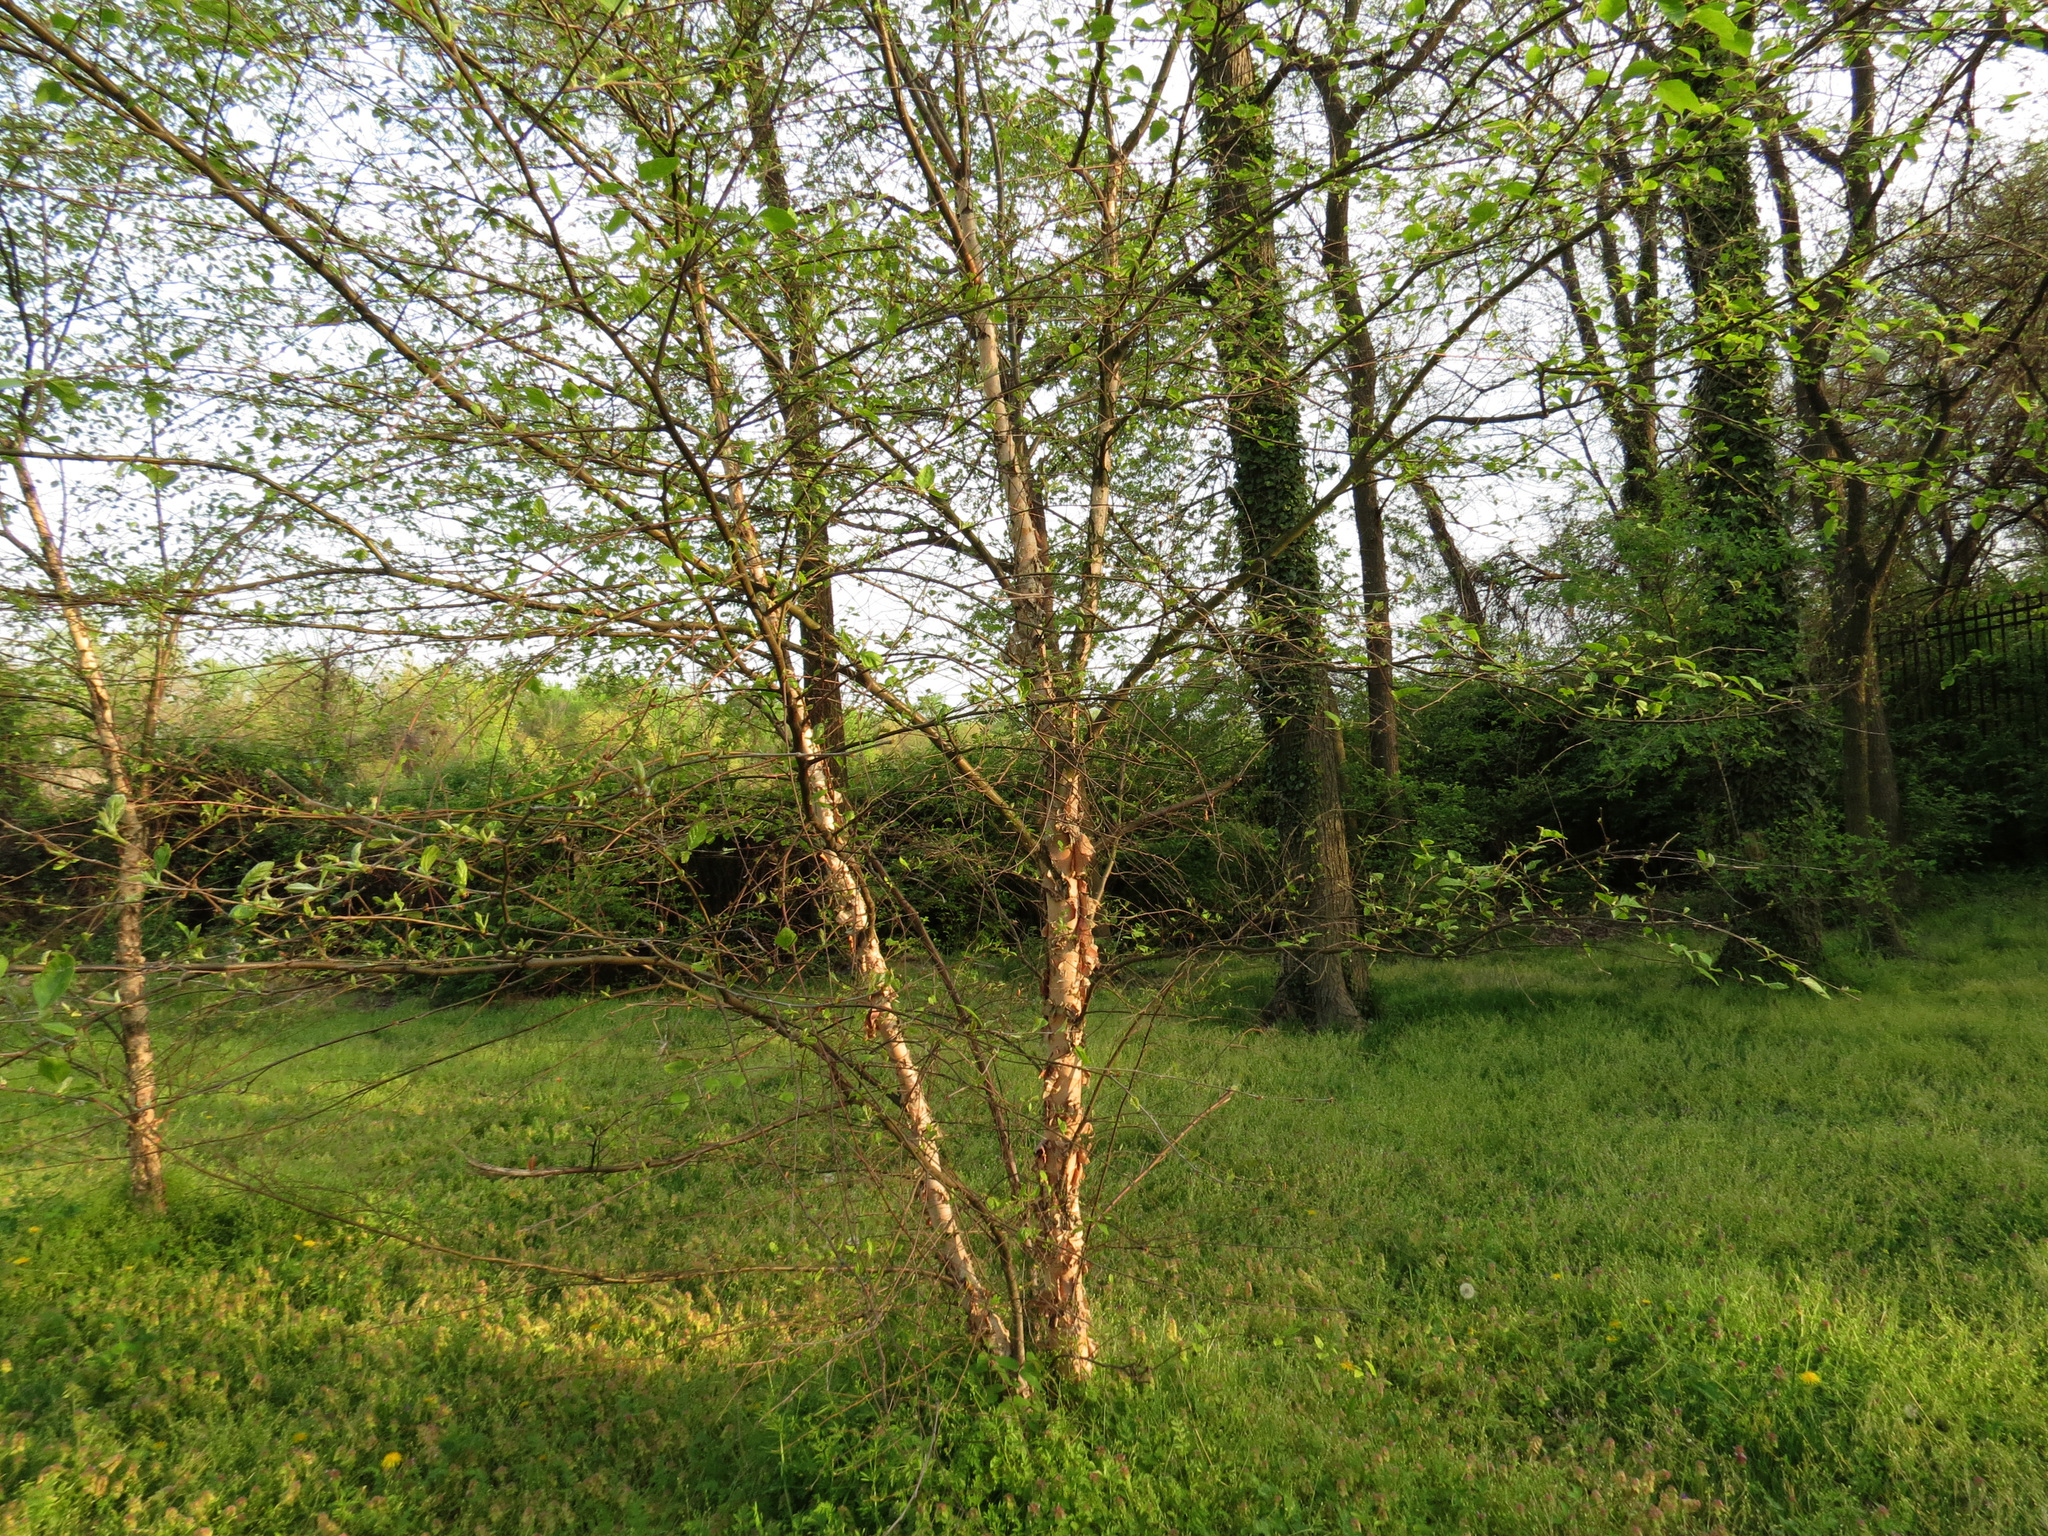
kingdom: Plantae
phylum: Tracheophyta
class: Magnoliopsida
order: Fagales
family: Betulaceae
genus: Betula
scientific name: Betula nigra
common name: Black birch
